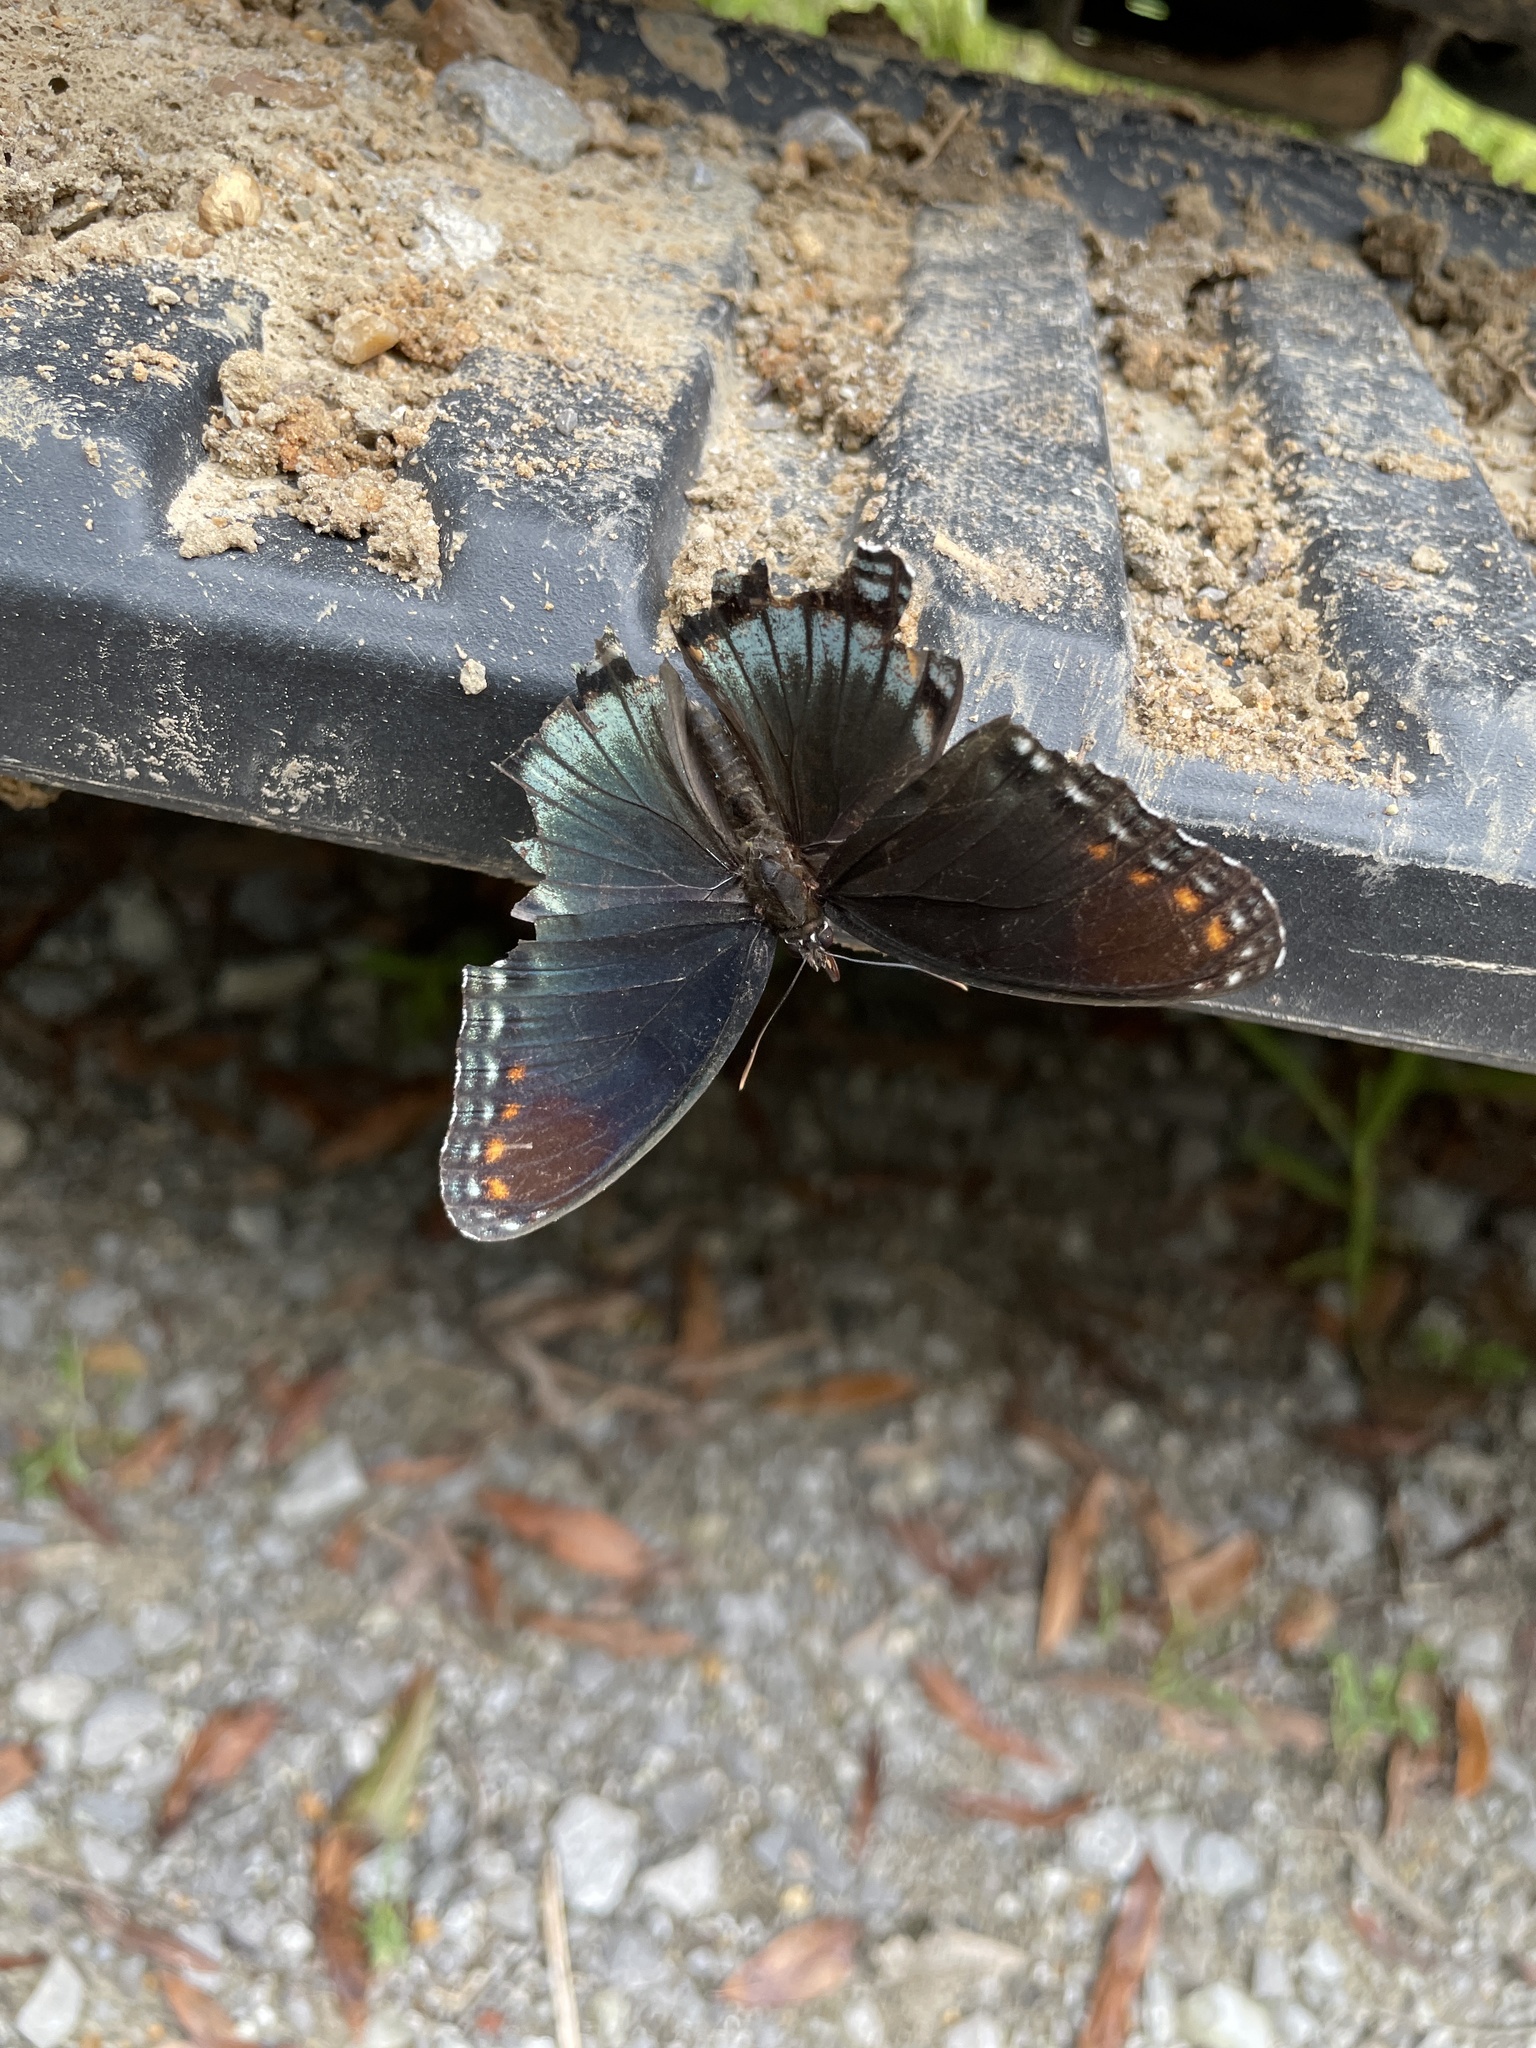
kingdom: Animalia
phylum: Arthropoda
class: Insecta
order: Lepidoptera
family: Nymphalidae
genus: Limenitis
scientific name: Limenitis astyanax
